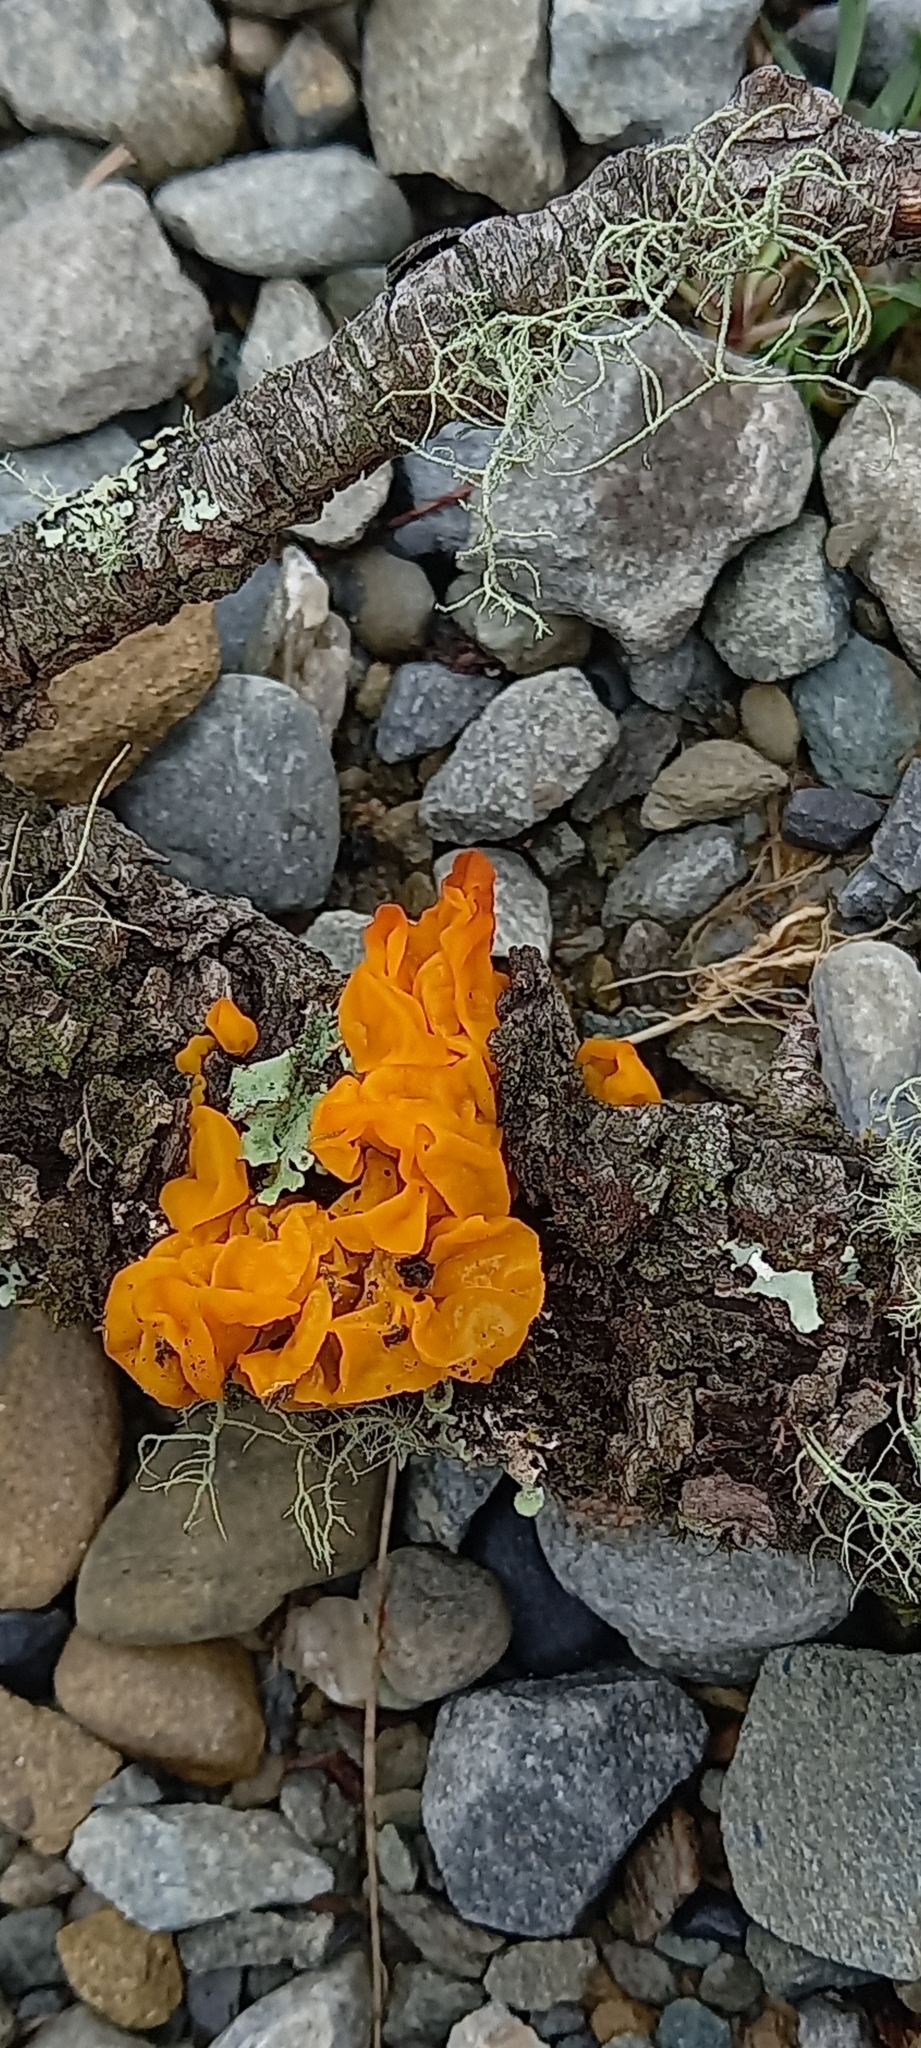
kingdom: Fungi
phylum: Basidiomycota
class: Tremellomycetes
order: Tremellales
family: Tremellaceae
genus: Tremella
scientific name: Tremella mesenterica
